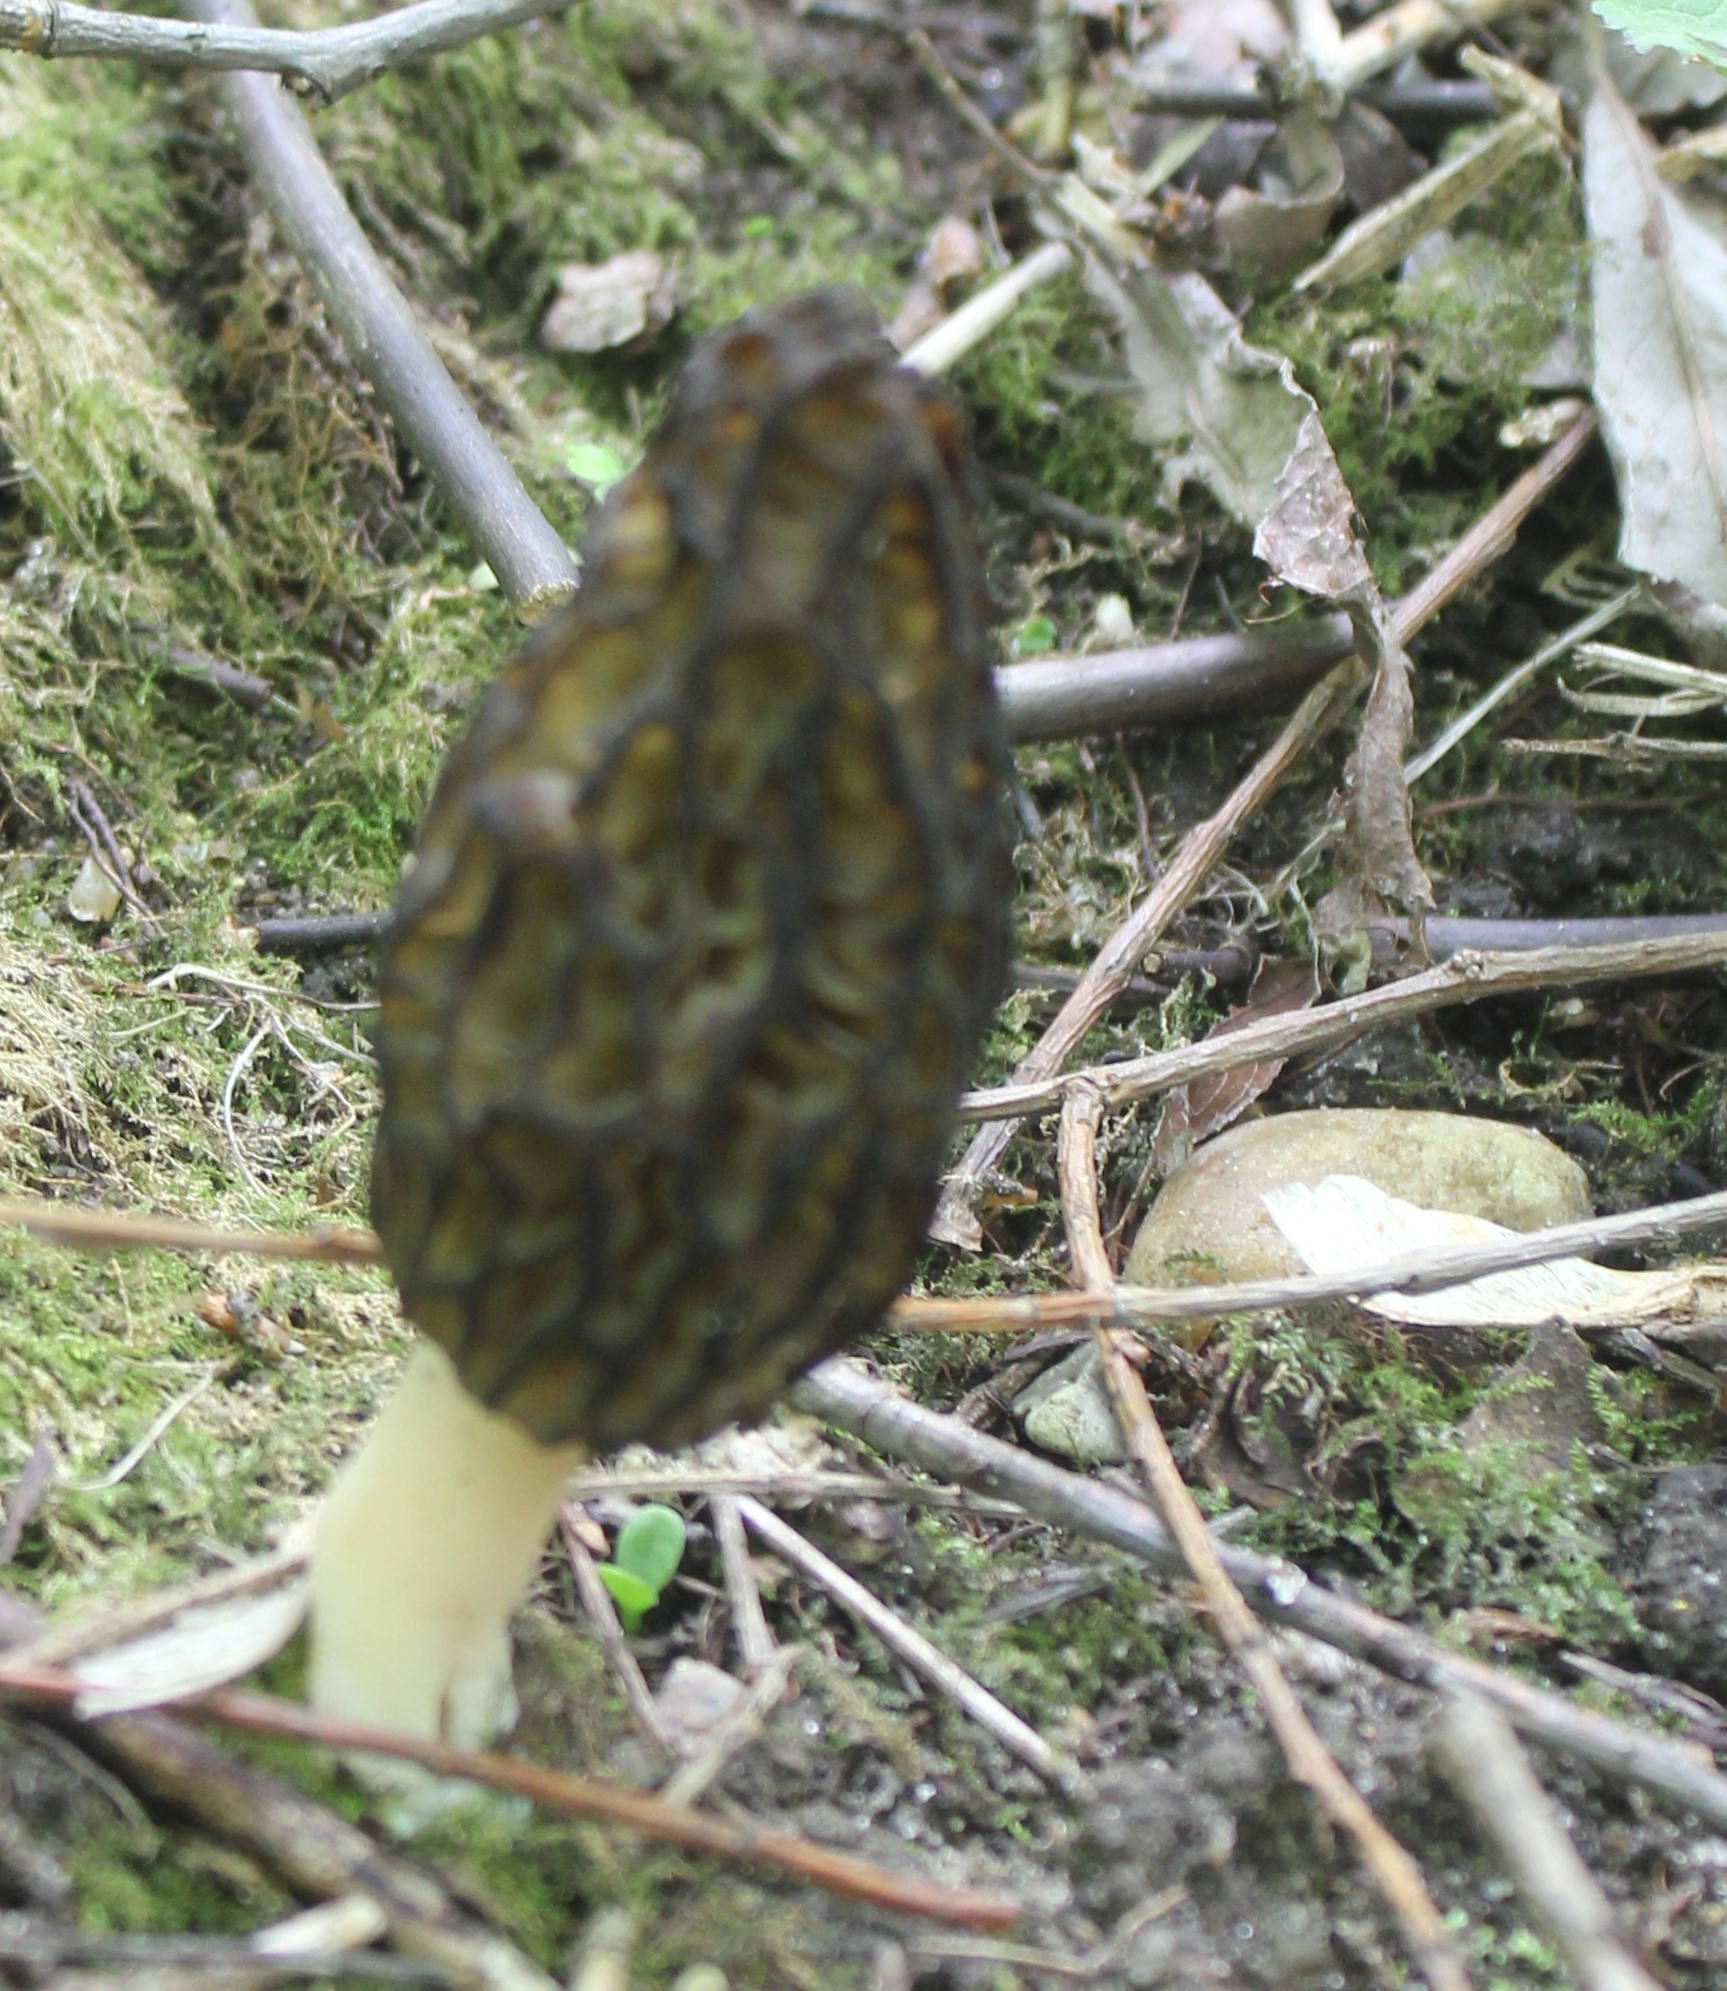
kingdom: Fungi
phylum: Ascomycota
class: Pezizomycetes
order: Pezizales
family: Morchellaceae
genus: Morchella
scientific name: Morchella
